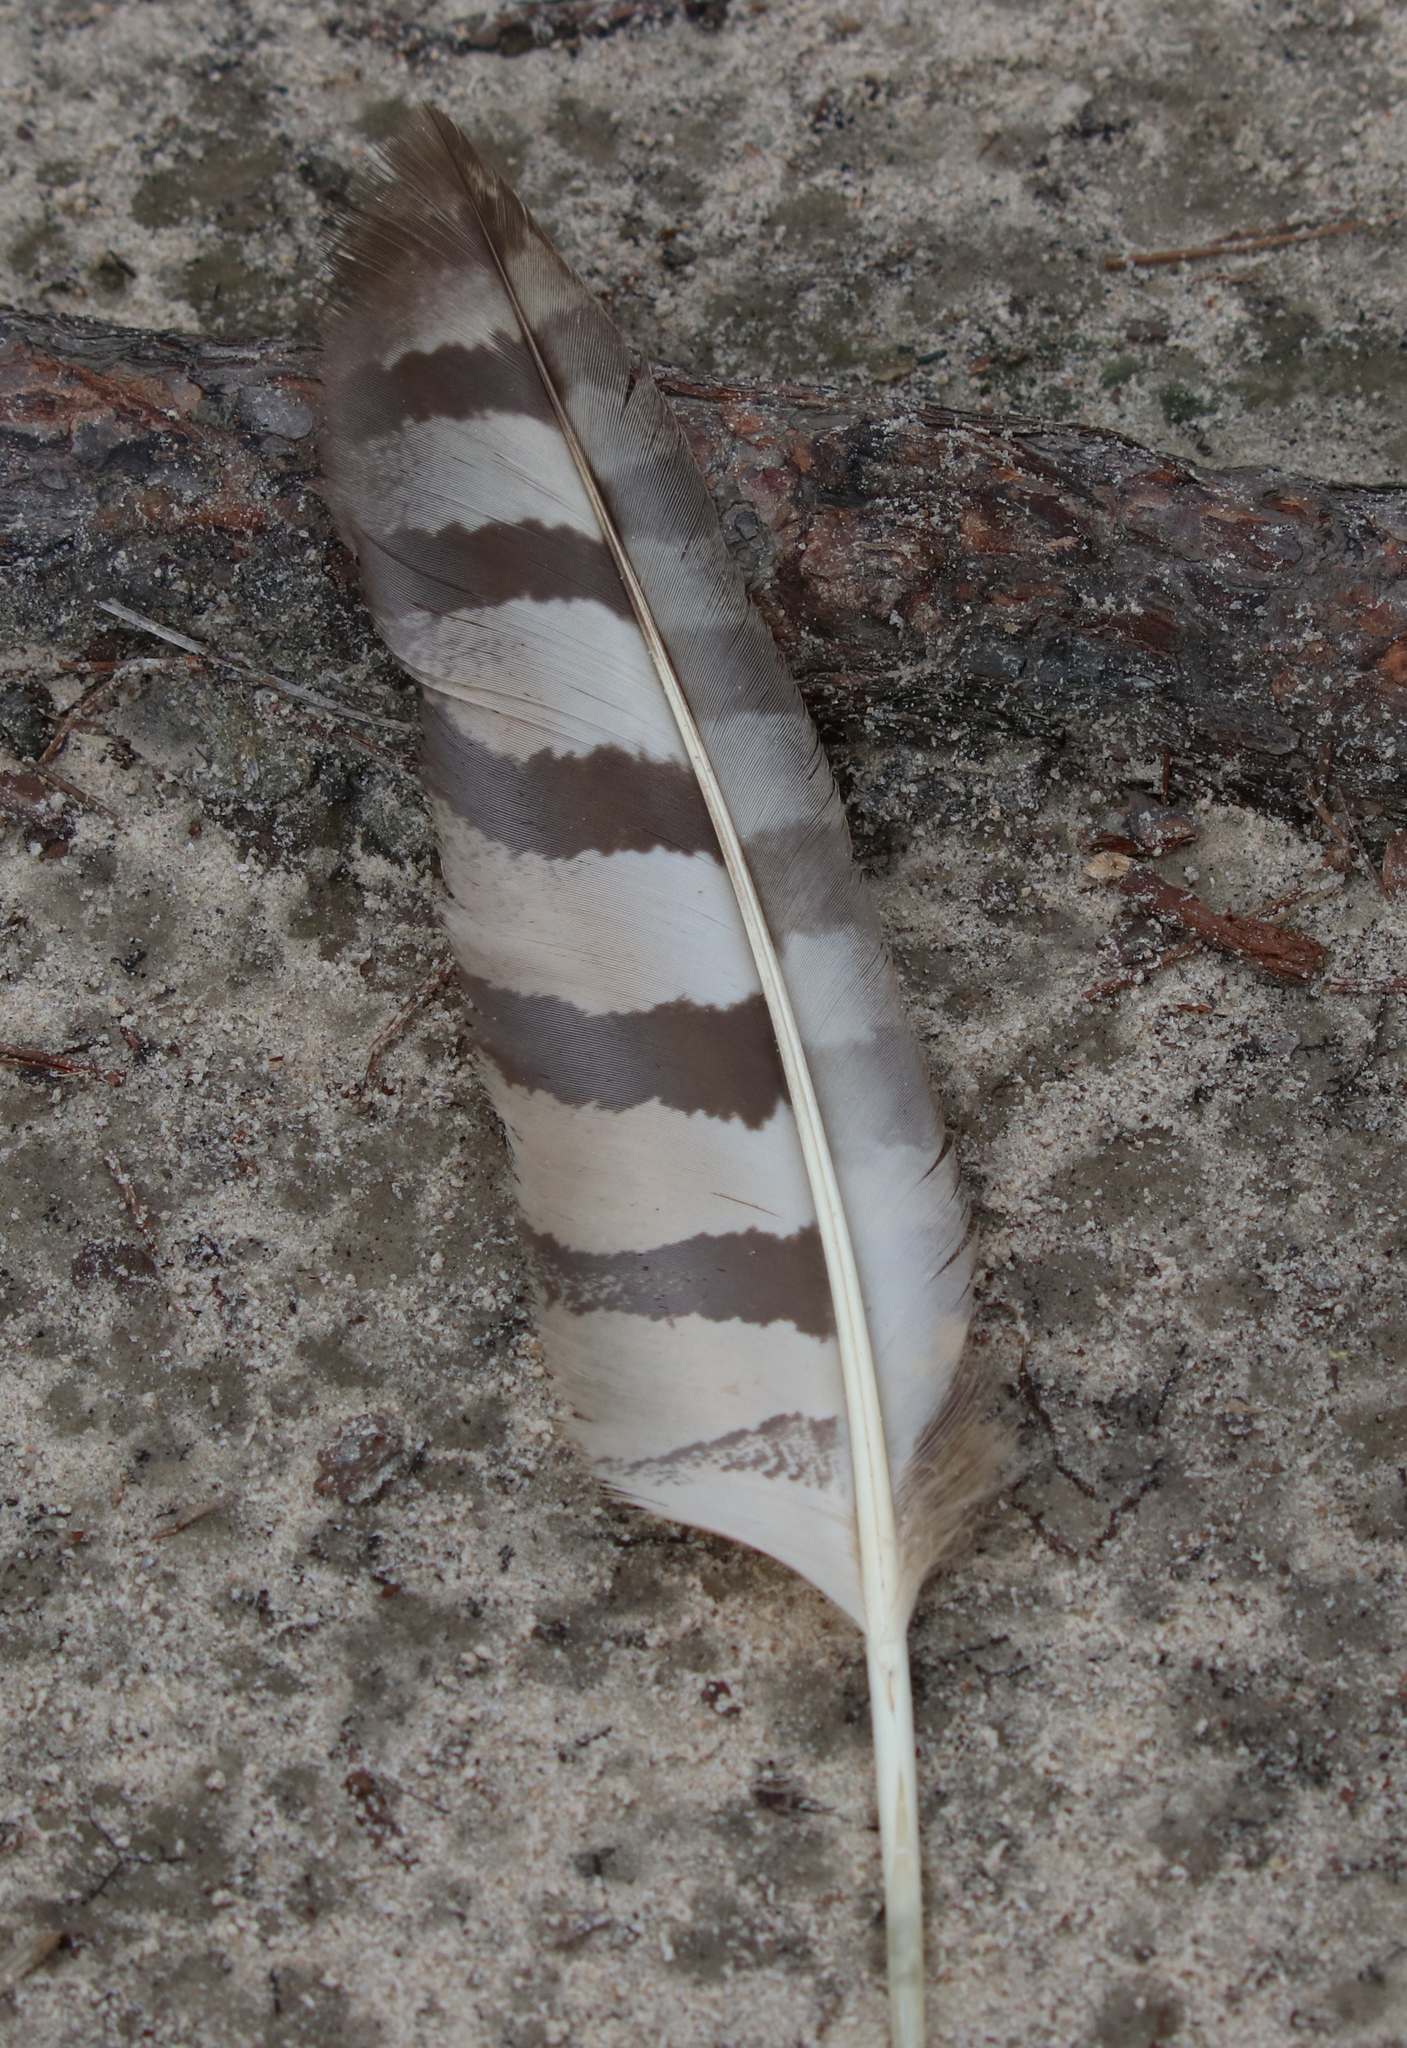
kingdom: Animalia
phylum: Chordata
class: Aves
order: Strigiformes
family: Strigidae
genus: Bubo
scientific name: Bubo virginianus
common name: Great horned owl
